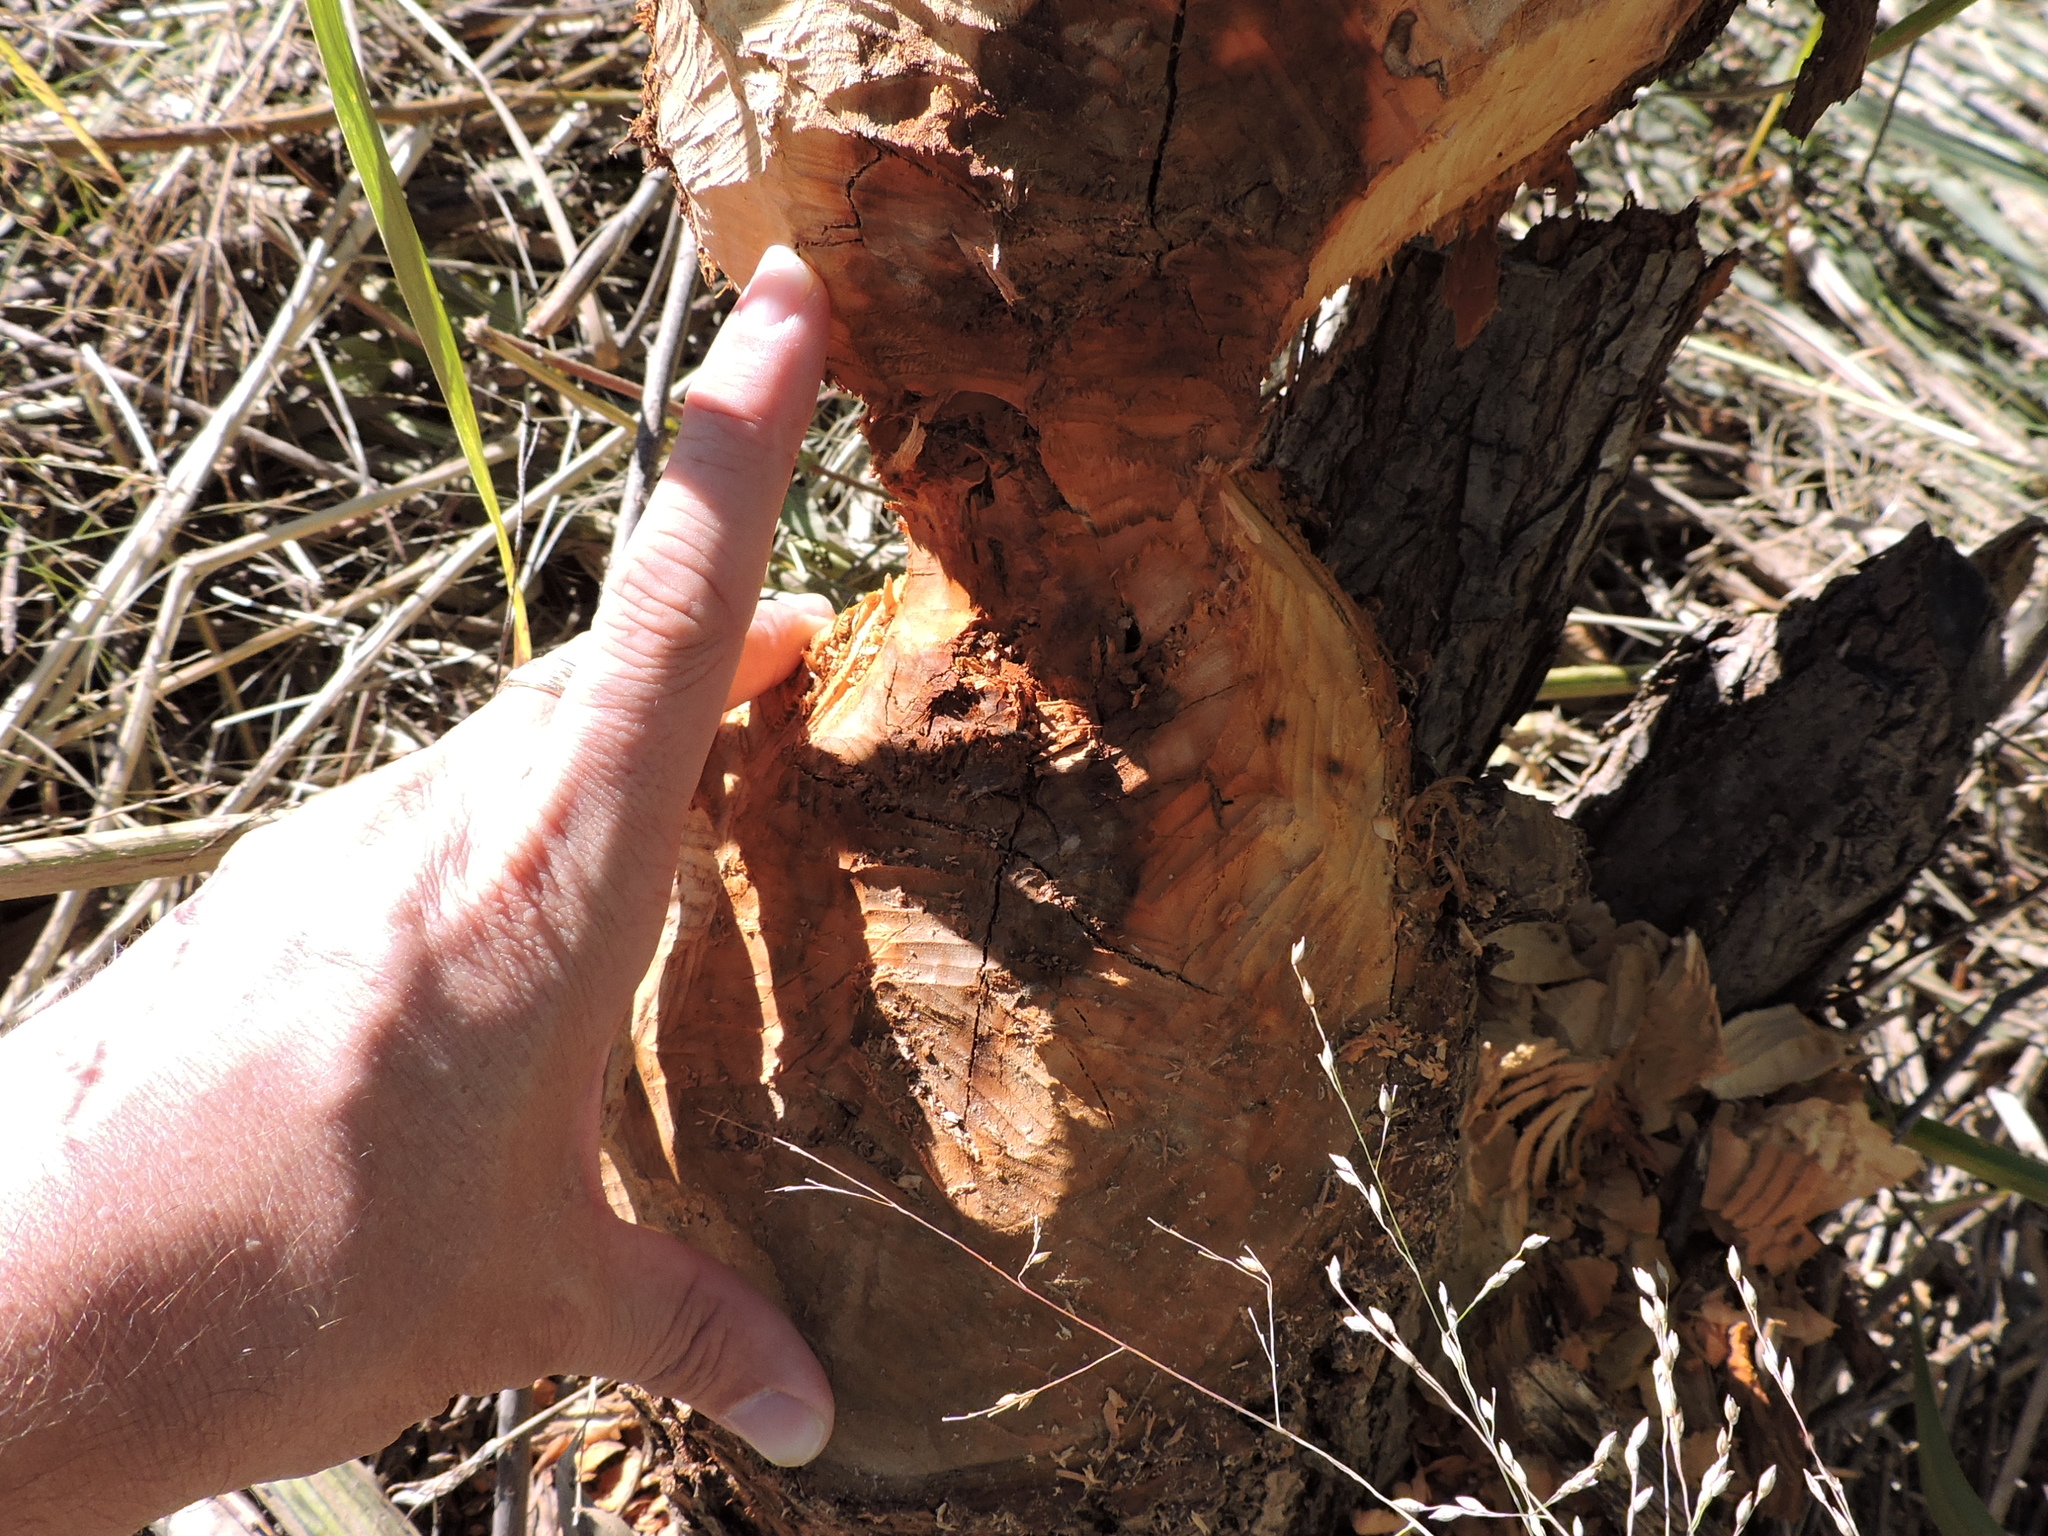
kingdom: Animalia
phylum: Chordata
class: Mammalia
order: Rodentia
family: Castoridae
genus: Castor
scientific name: Castor canadensis
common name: American beaver
